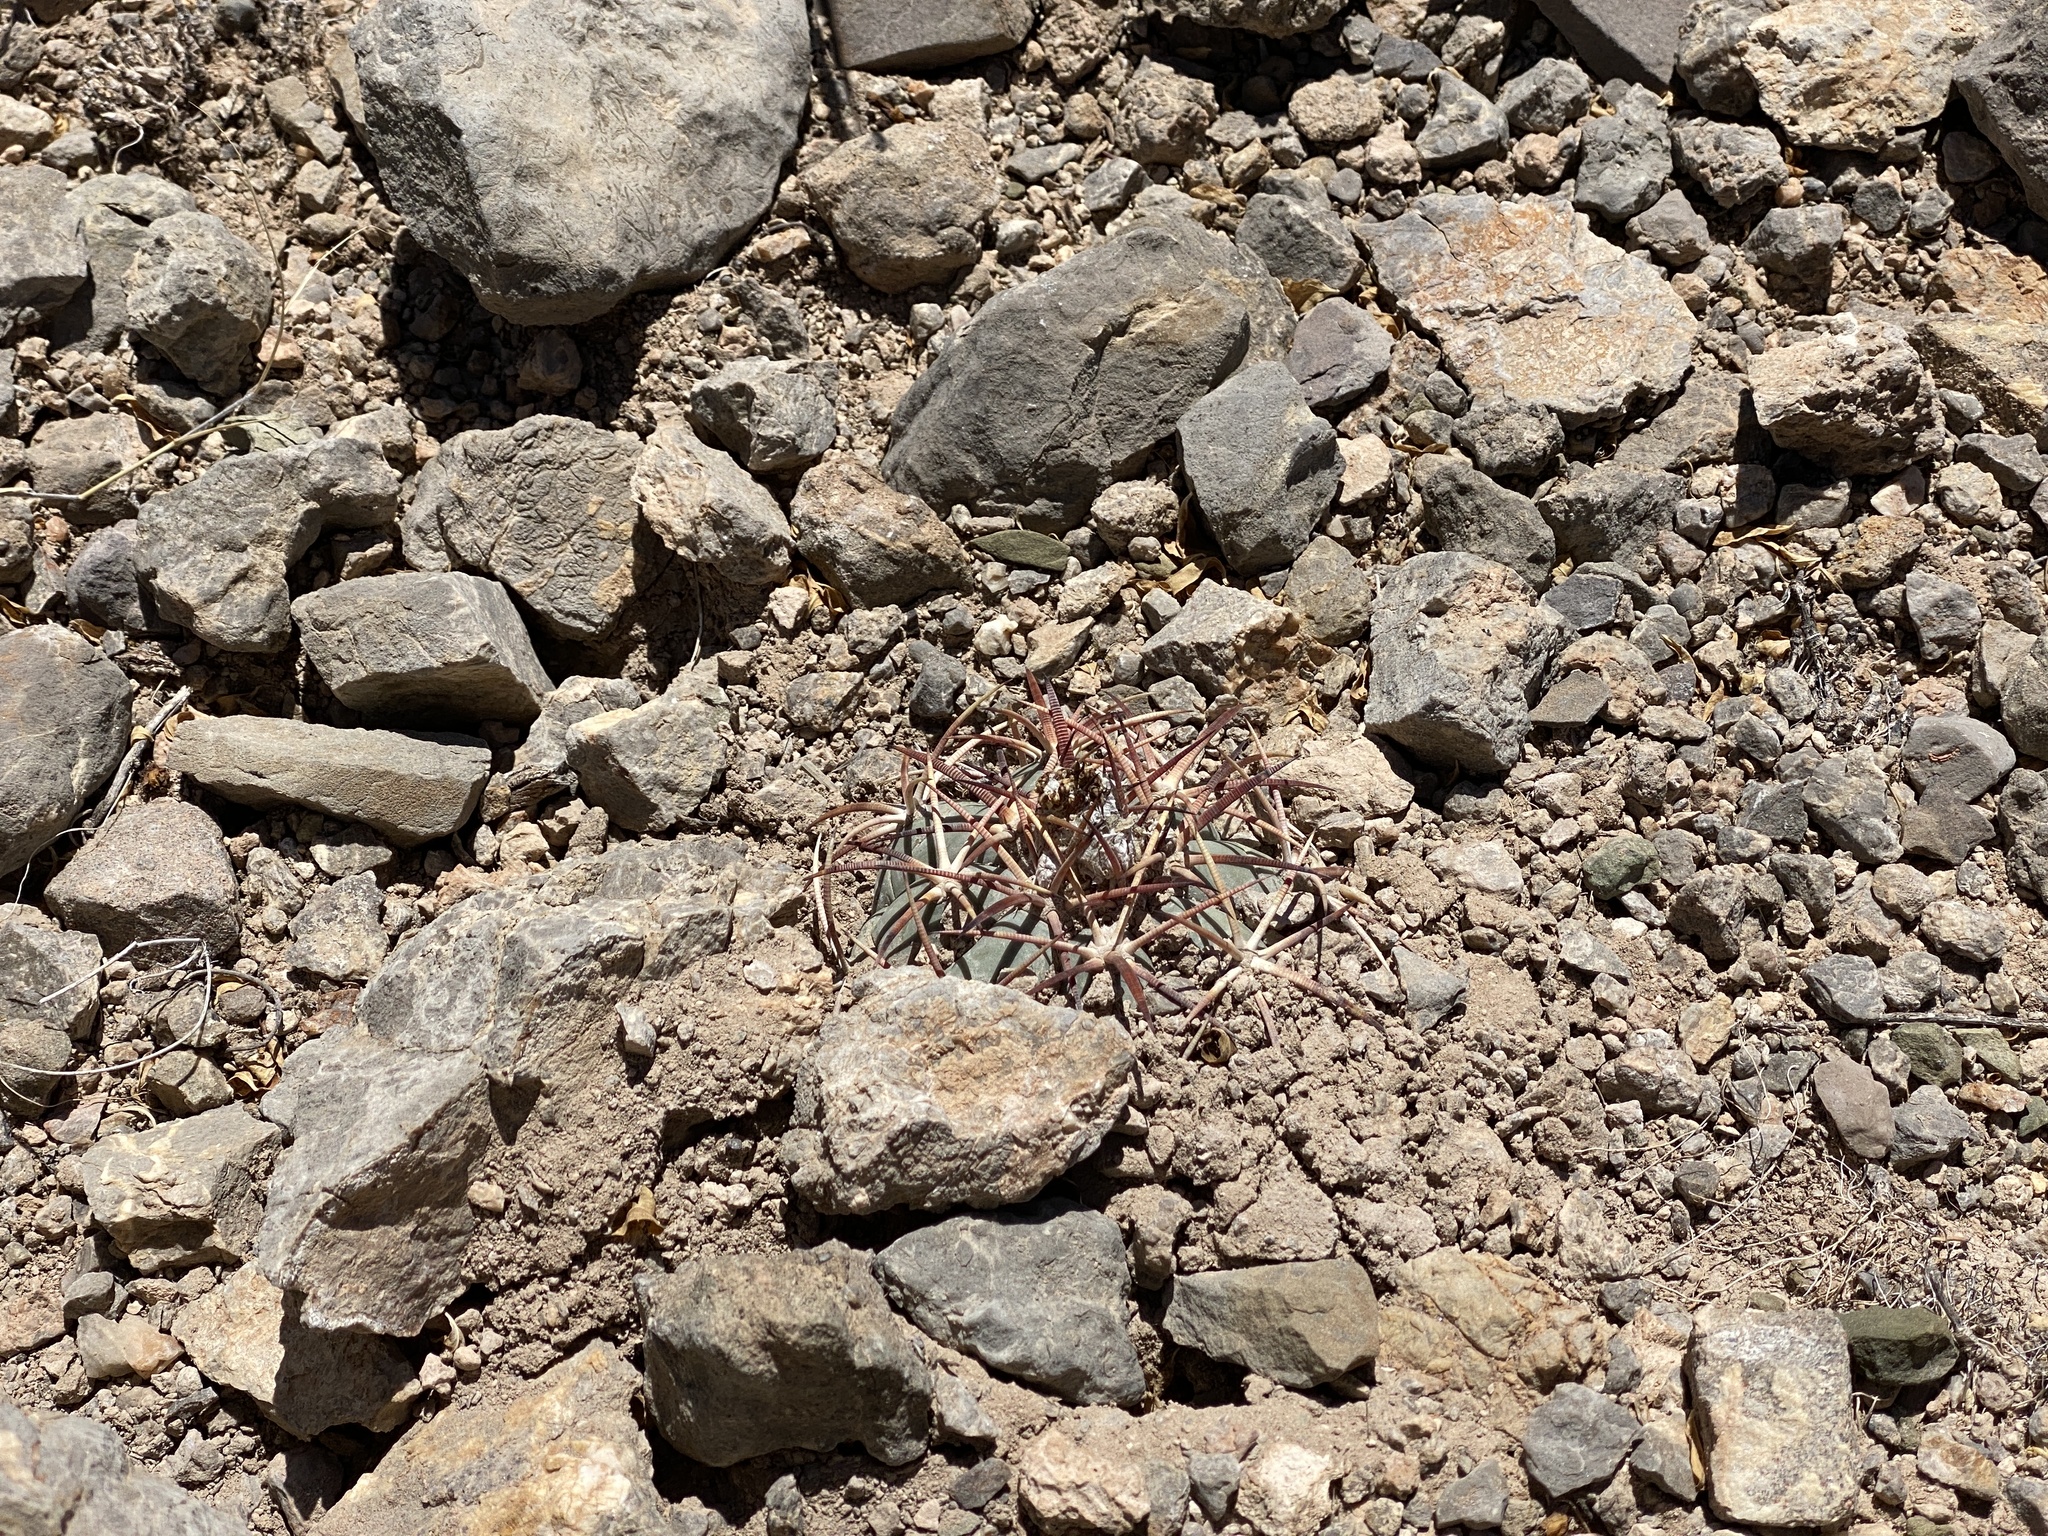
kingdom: Plantae
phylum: Tracheophyta
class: Magnoliopsida
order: Caryophyllales
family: Cactaceae
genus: Echinocactus
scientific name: Echinocactus horizonthalonius
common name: Devilshead
